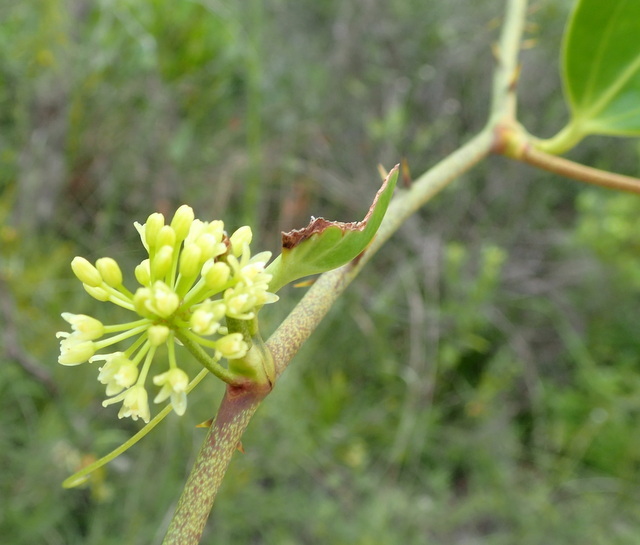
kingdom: Plantae
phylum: Tracheophyta
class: Liliopsida
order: Liliales
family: Smilacaceae
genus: Smilax
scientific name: Smilax laurifolia
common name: Bamboovine
